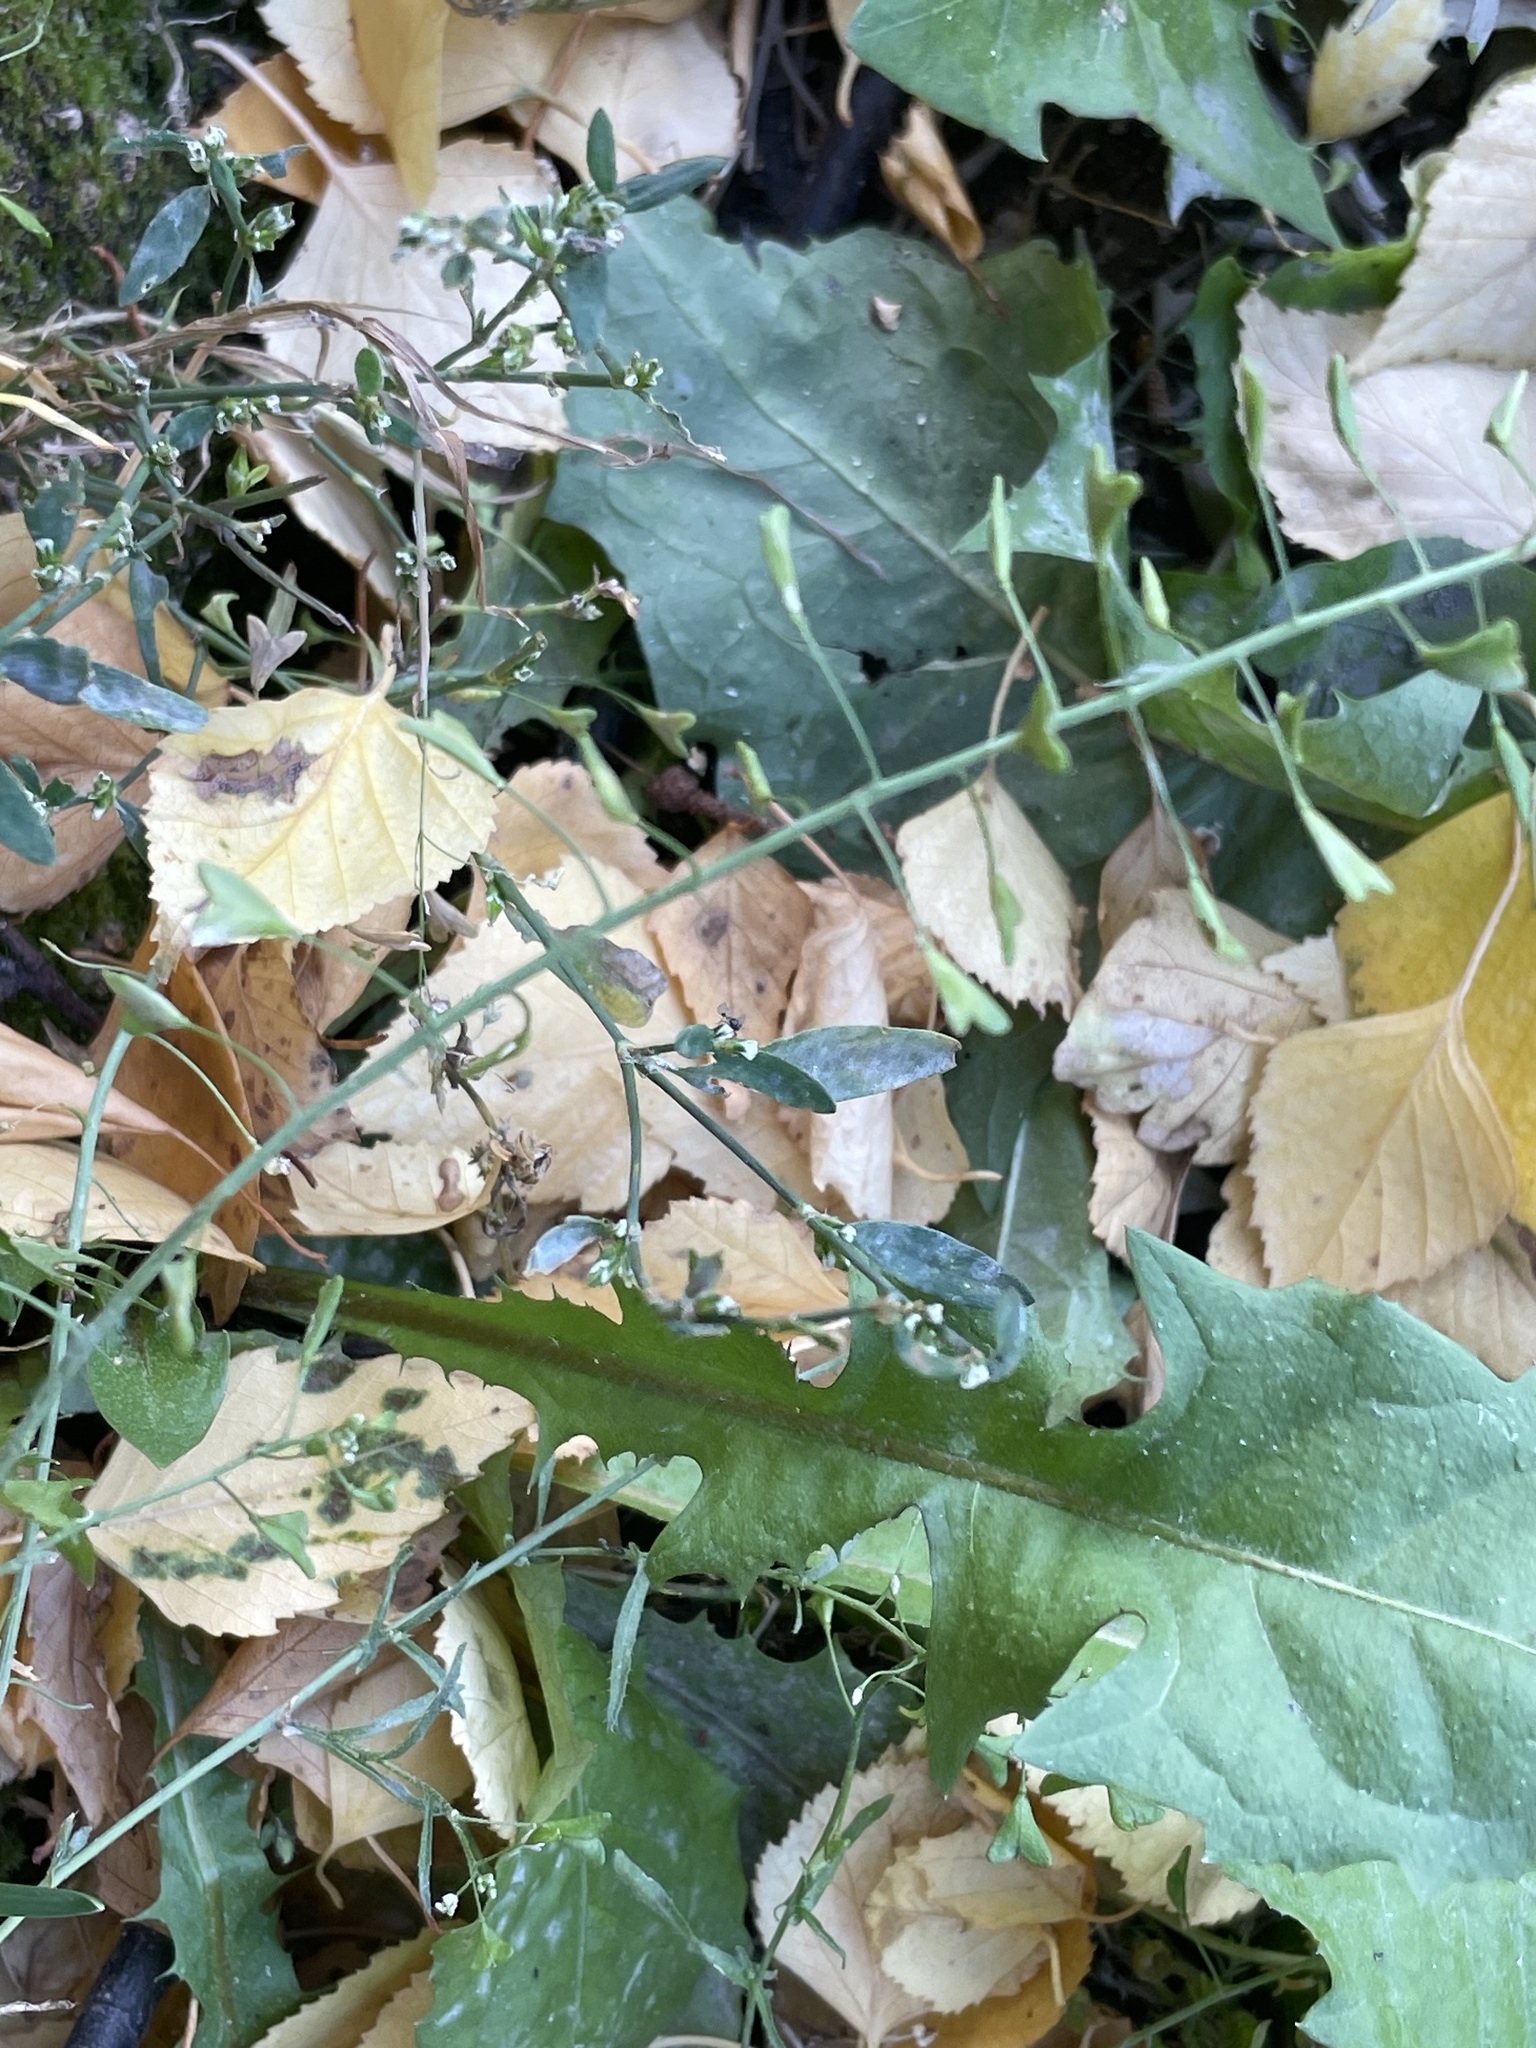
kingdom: Plantae
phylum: Tracheophyta
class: Magnoliopsida
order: Brassicales
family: Brassicaceae
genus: Capsella
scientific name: Capsella bursa-pastoris
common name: Shepherd's purse
